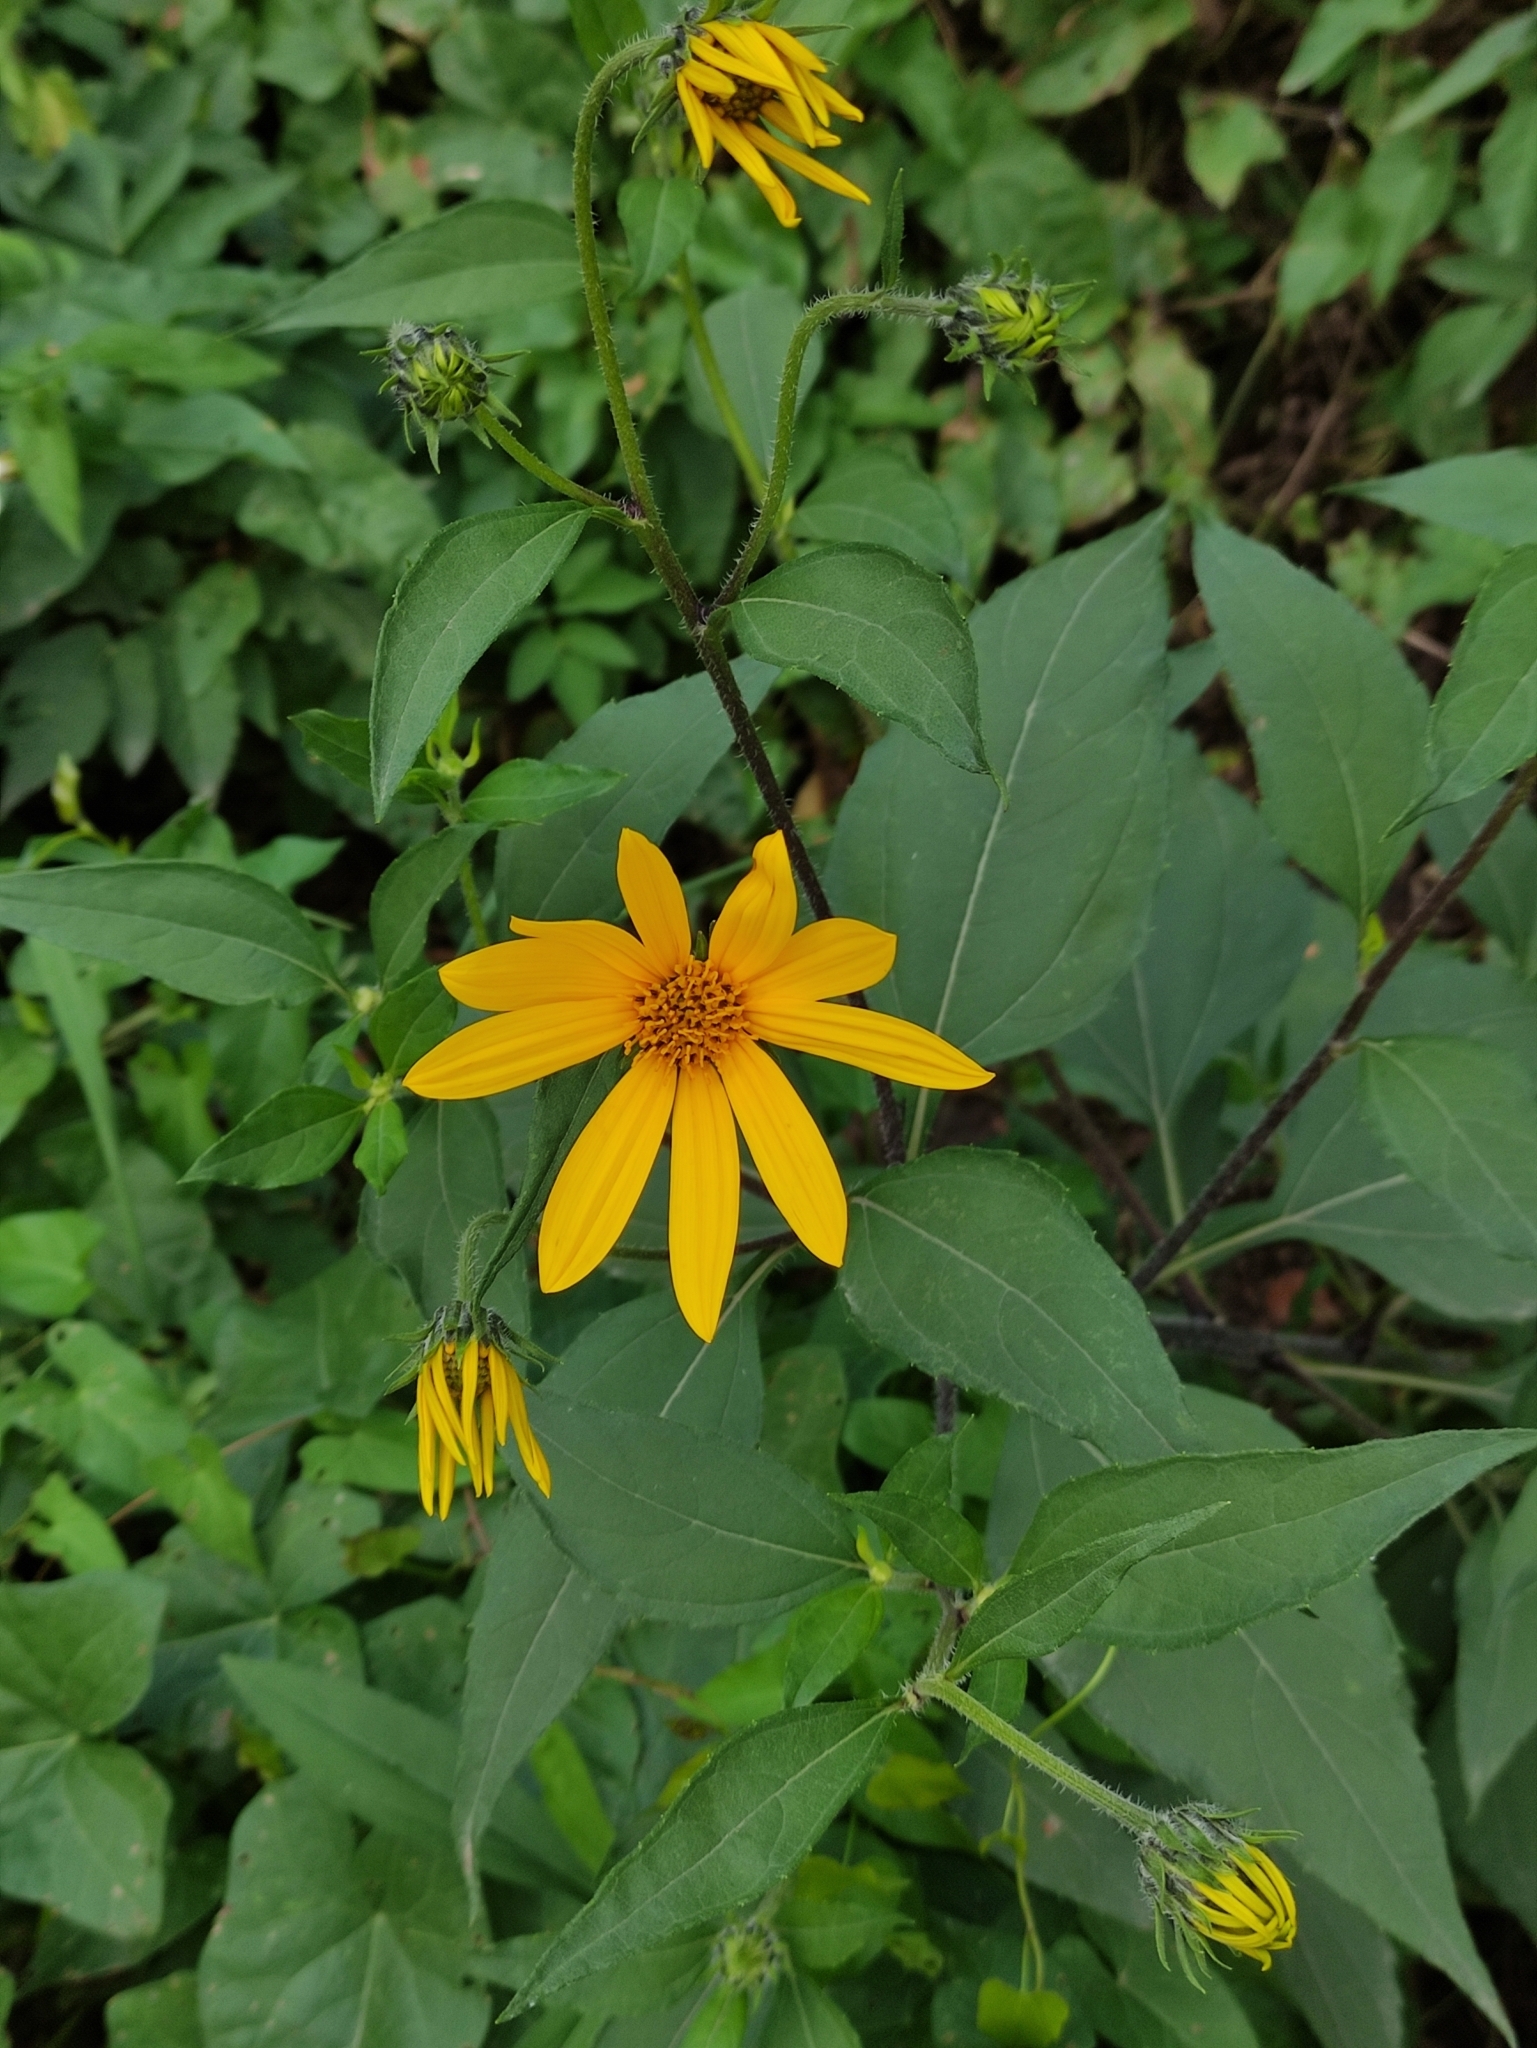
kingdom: Plantae
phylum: Tracheophyta
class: Magnoliopsida
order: Asterales
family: Asteraceae
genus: Helianthus
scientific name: Helianthus tuberosus
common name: Jerusalem artichoke
